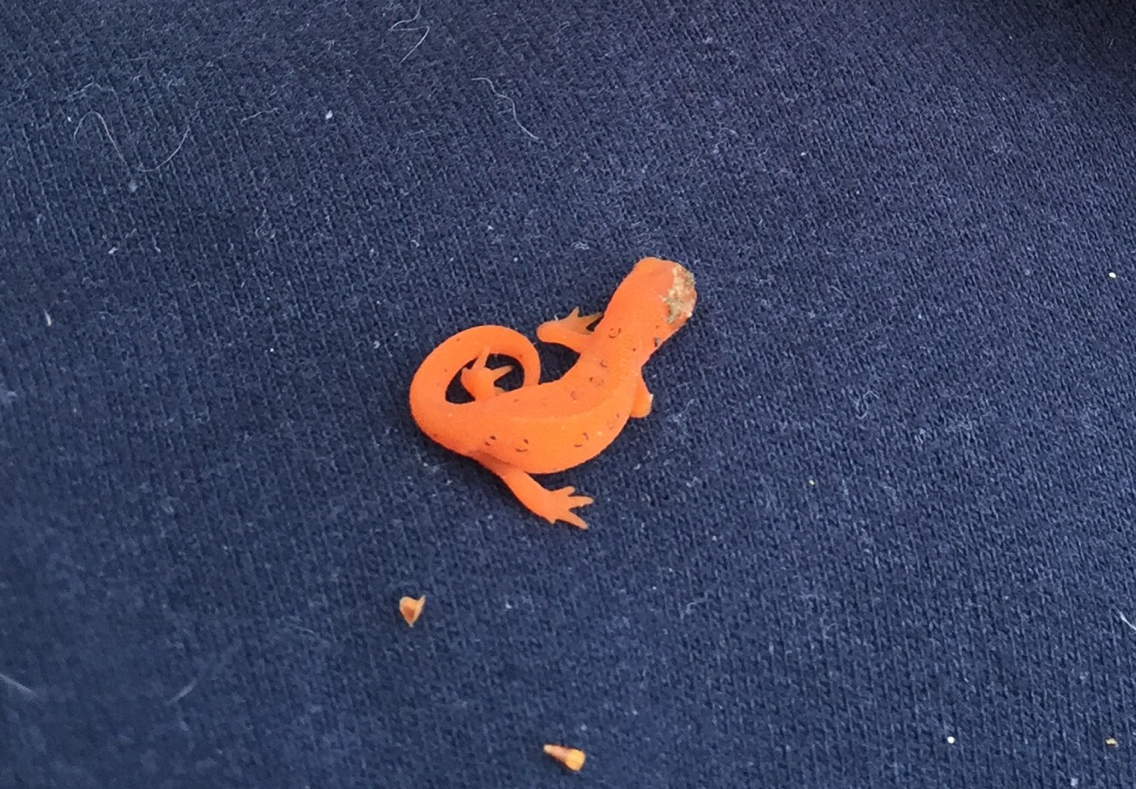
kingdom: Animalia
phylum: Chordata
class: Amphibia
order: Caudata
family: Salamandridae
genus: Notophthalmus
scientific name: Notophthalmus viridescens
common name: Eastern newt
